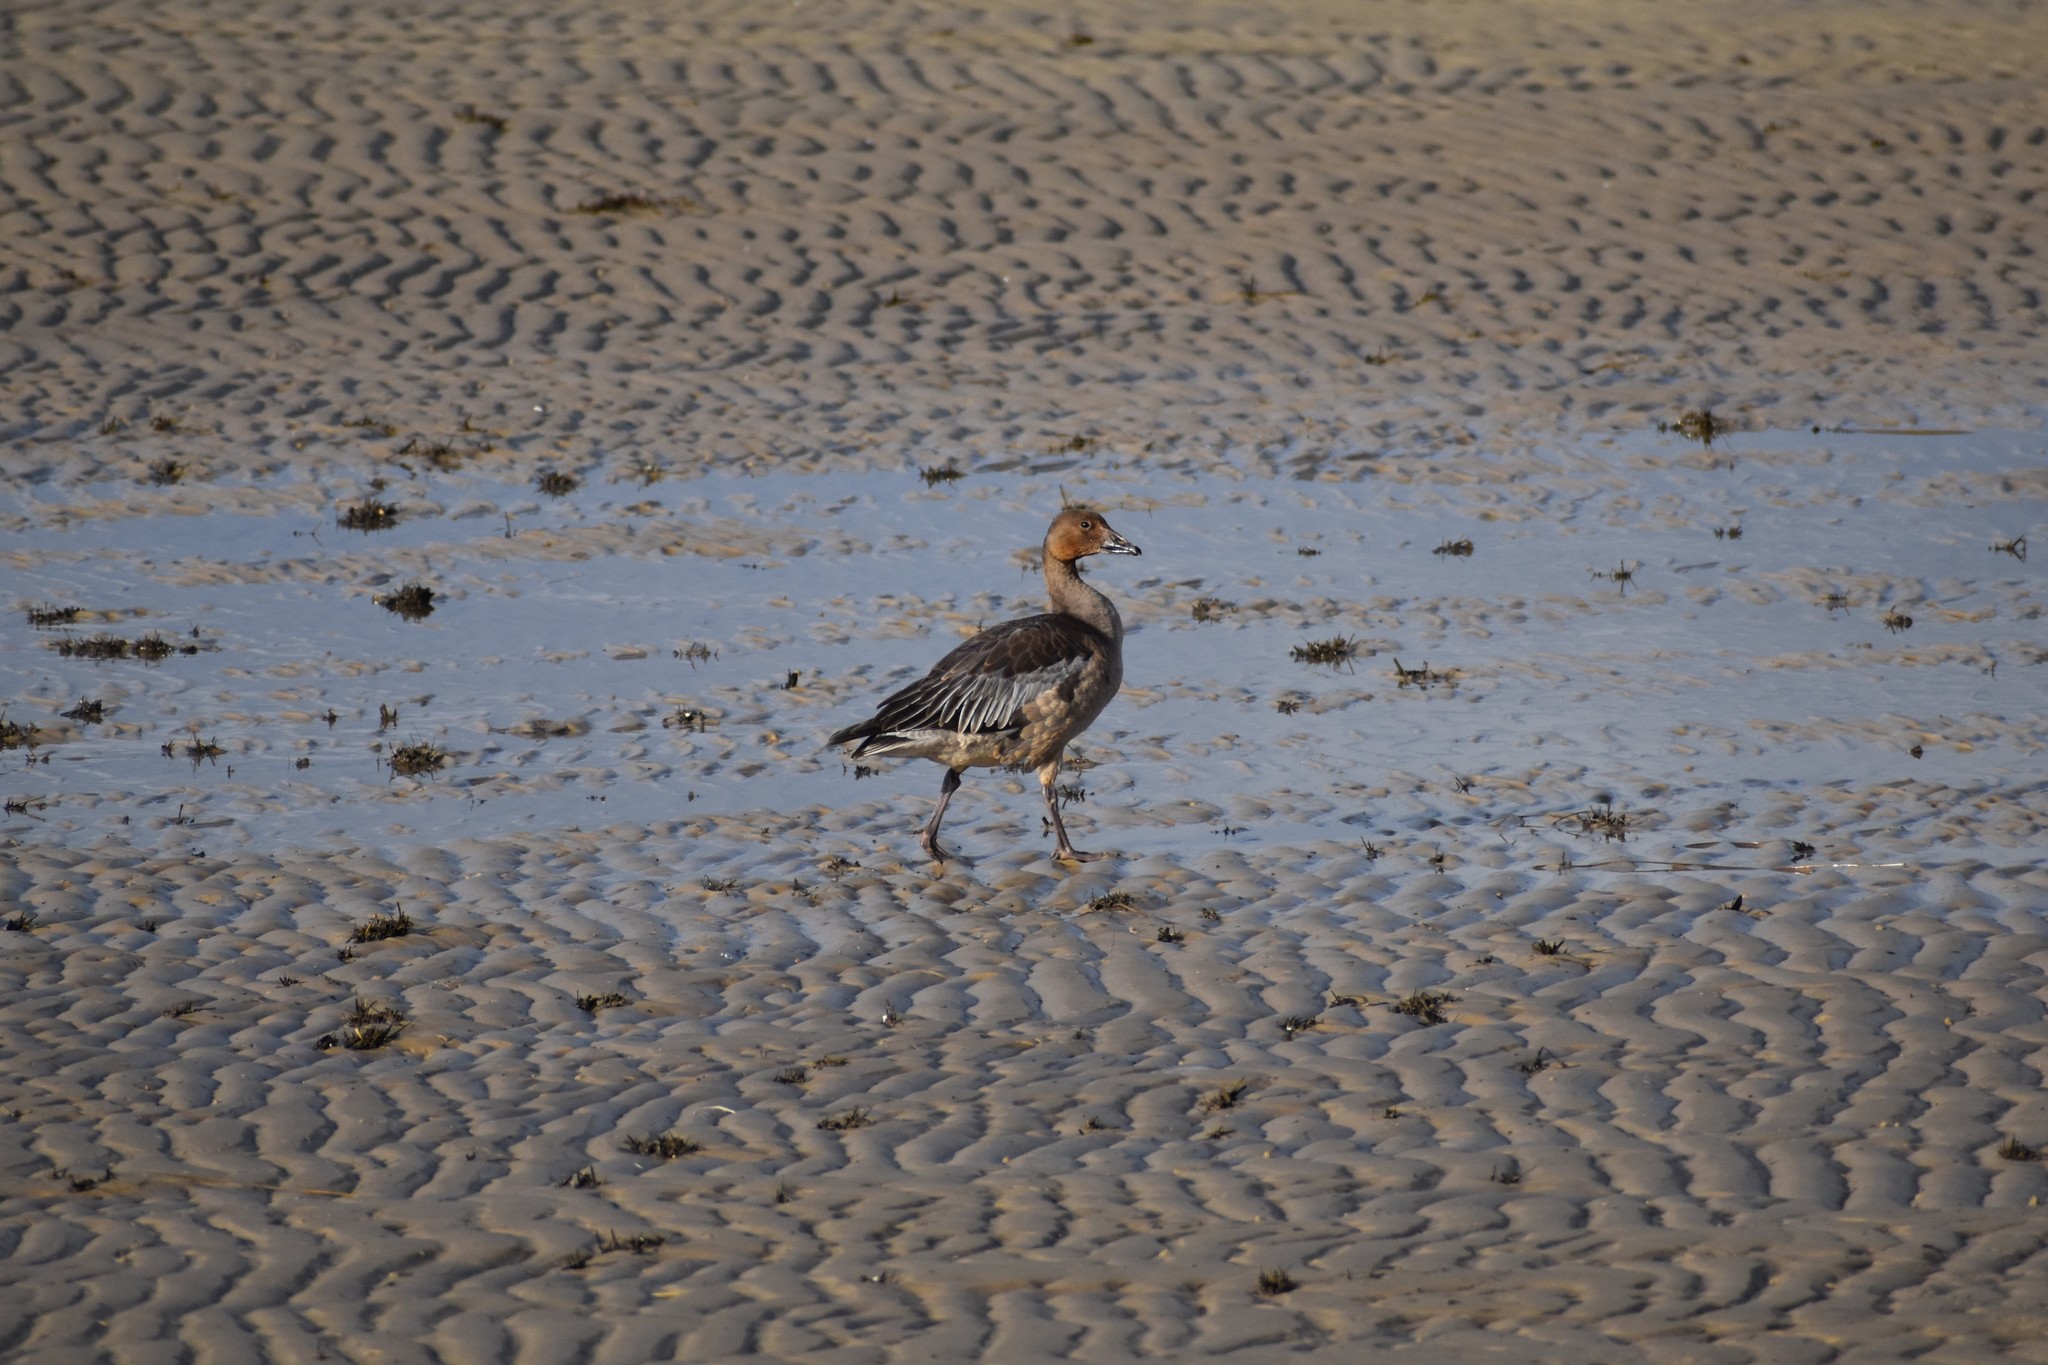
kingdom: Animalia
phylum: Chordata
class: Aves
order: Anseriformes
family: Anatidae
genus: Anser
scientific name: Anser caerulescens
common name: Snow goose
